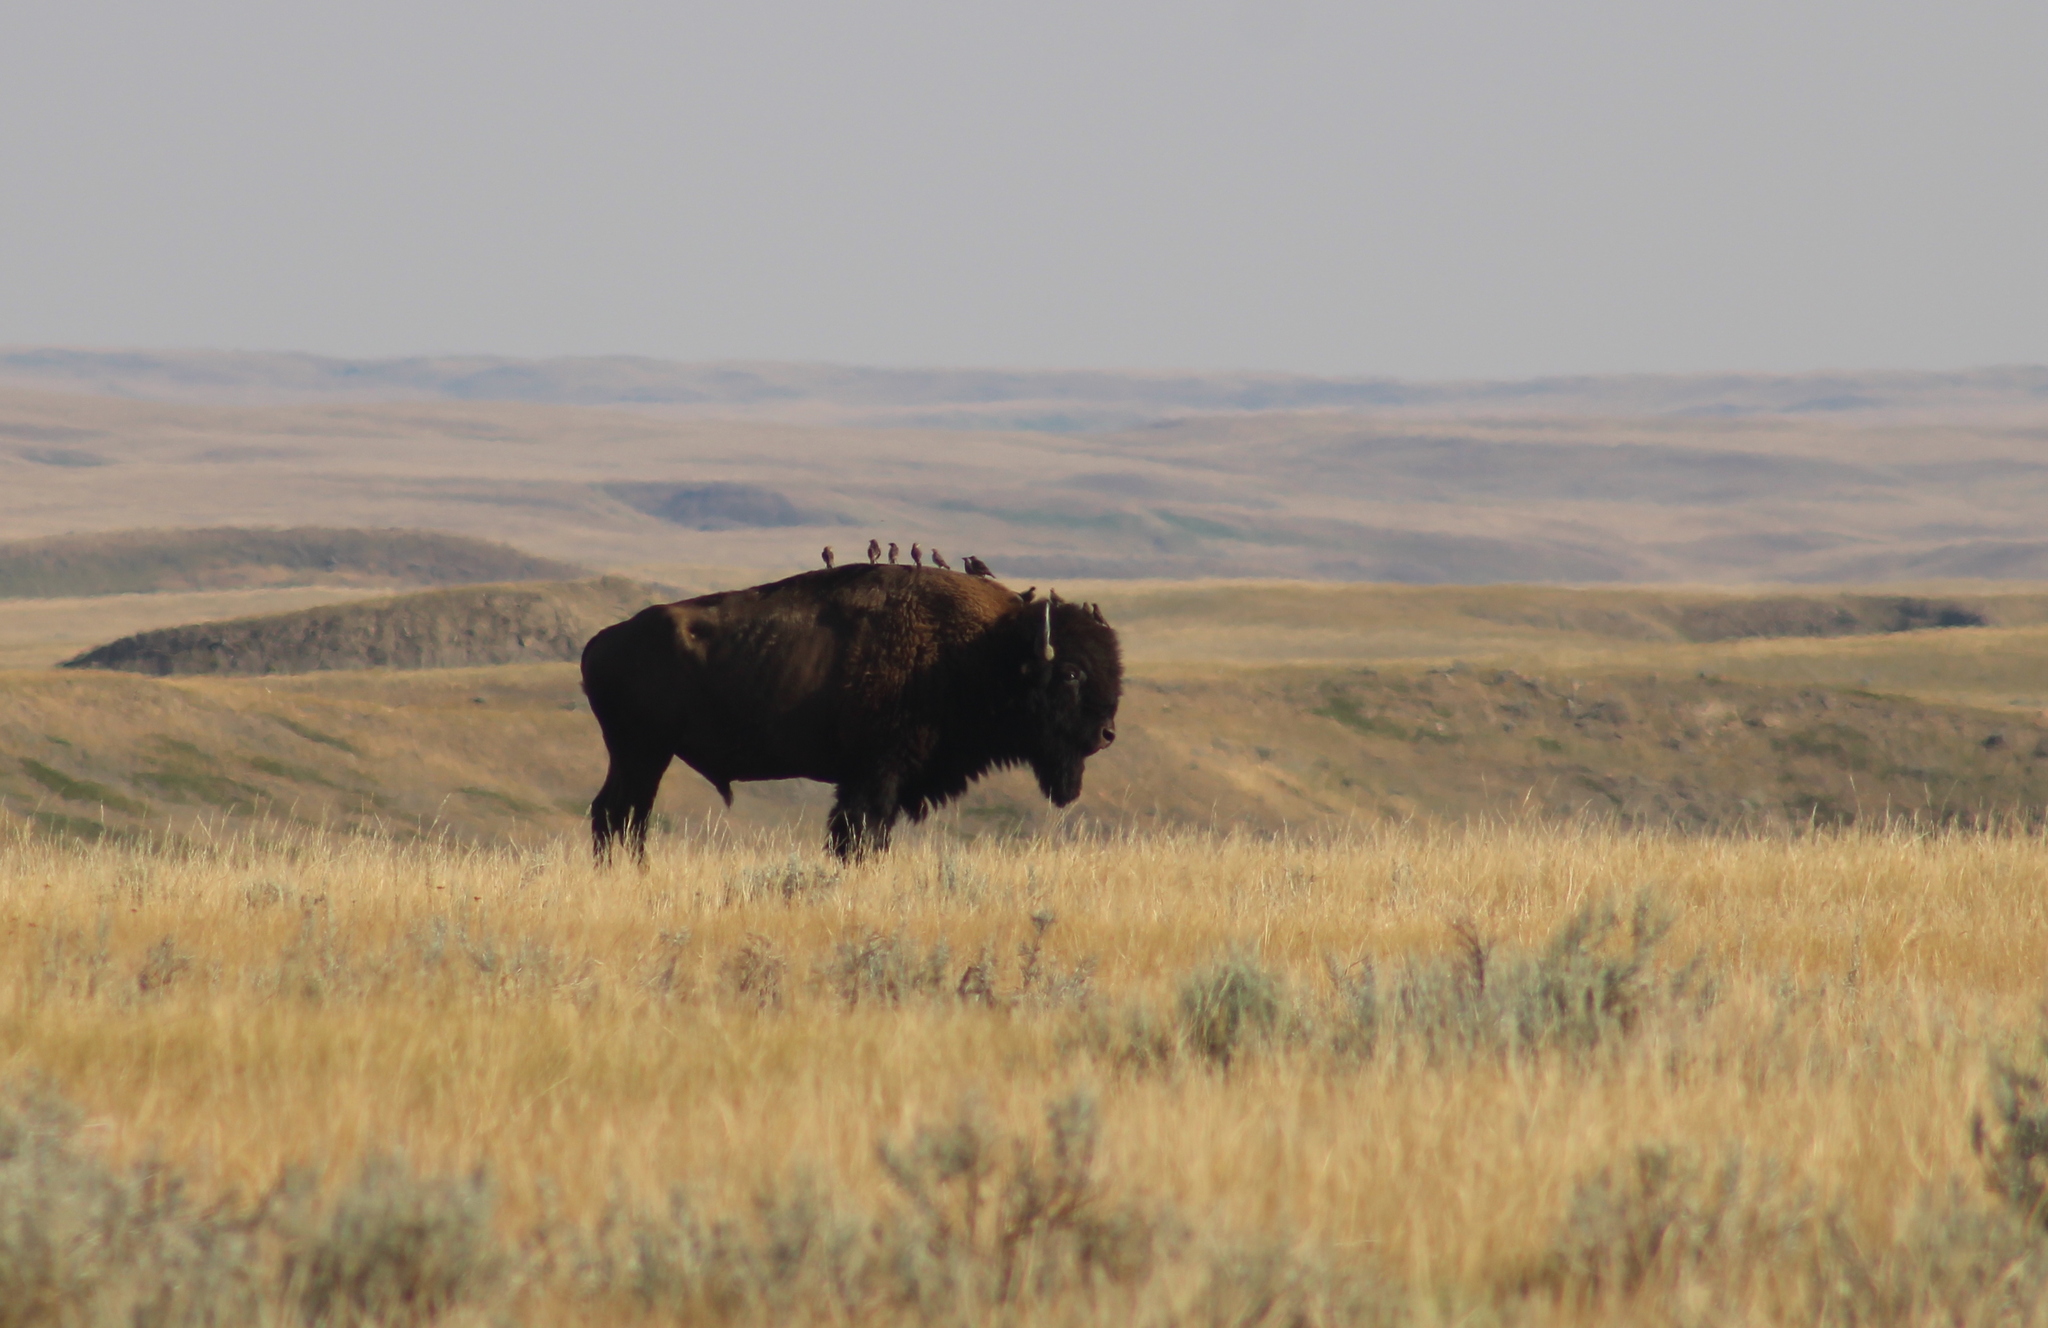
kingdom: Animalia
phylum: Chordata
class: Mammalia
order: Artiodactyla
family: Bovidae
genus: Bison
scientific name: Bison bison
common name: American bison
